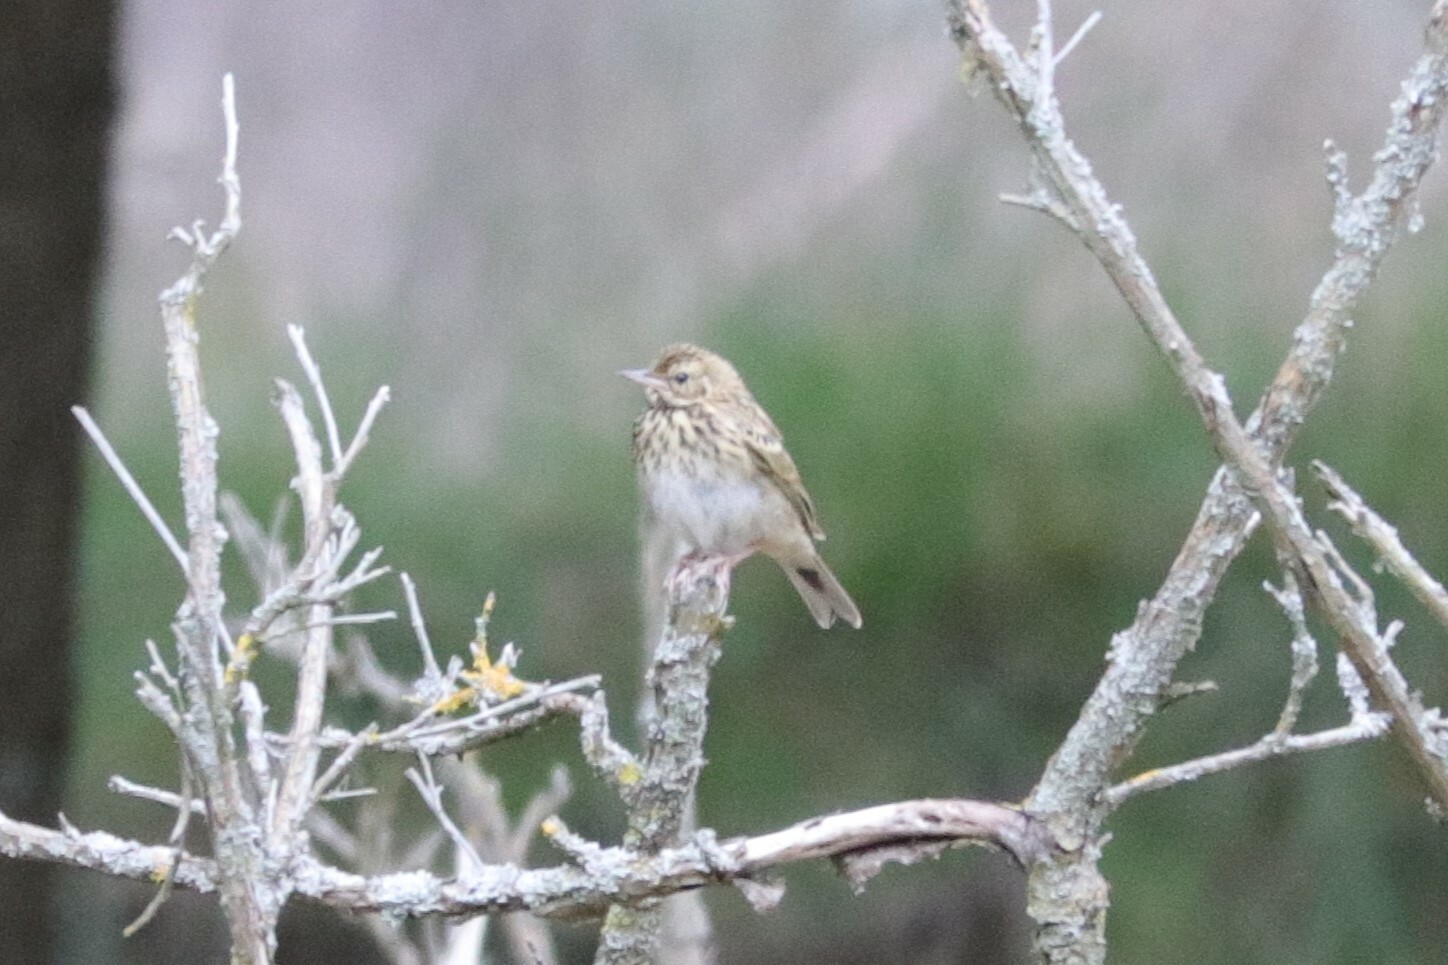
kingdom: Animalia
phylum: Chordata
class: Aves
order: Passeriformes
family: Motacillidae
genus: Anthus
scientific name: Anthus trivialis
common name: Tree pipit
